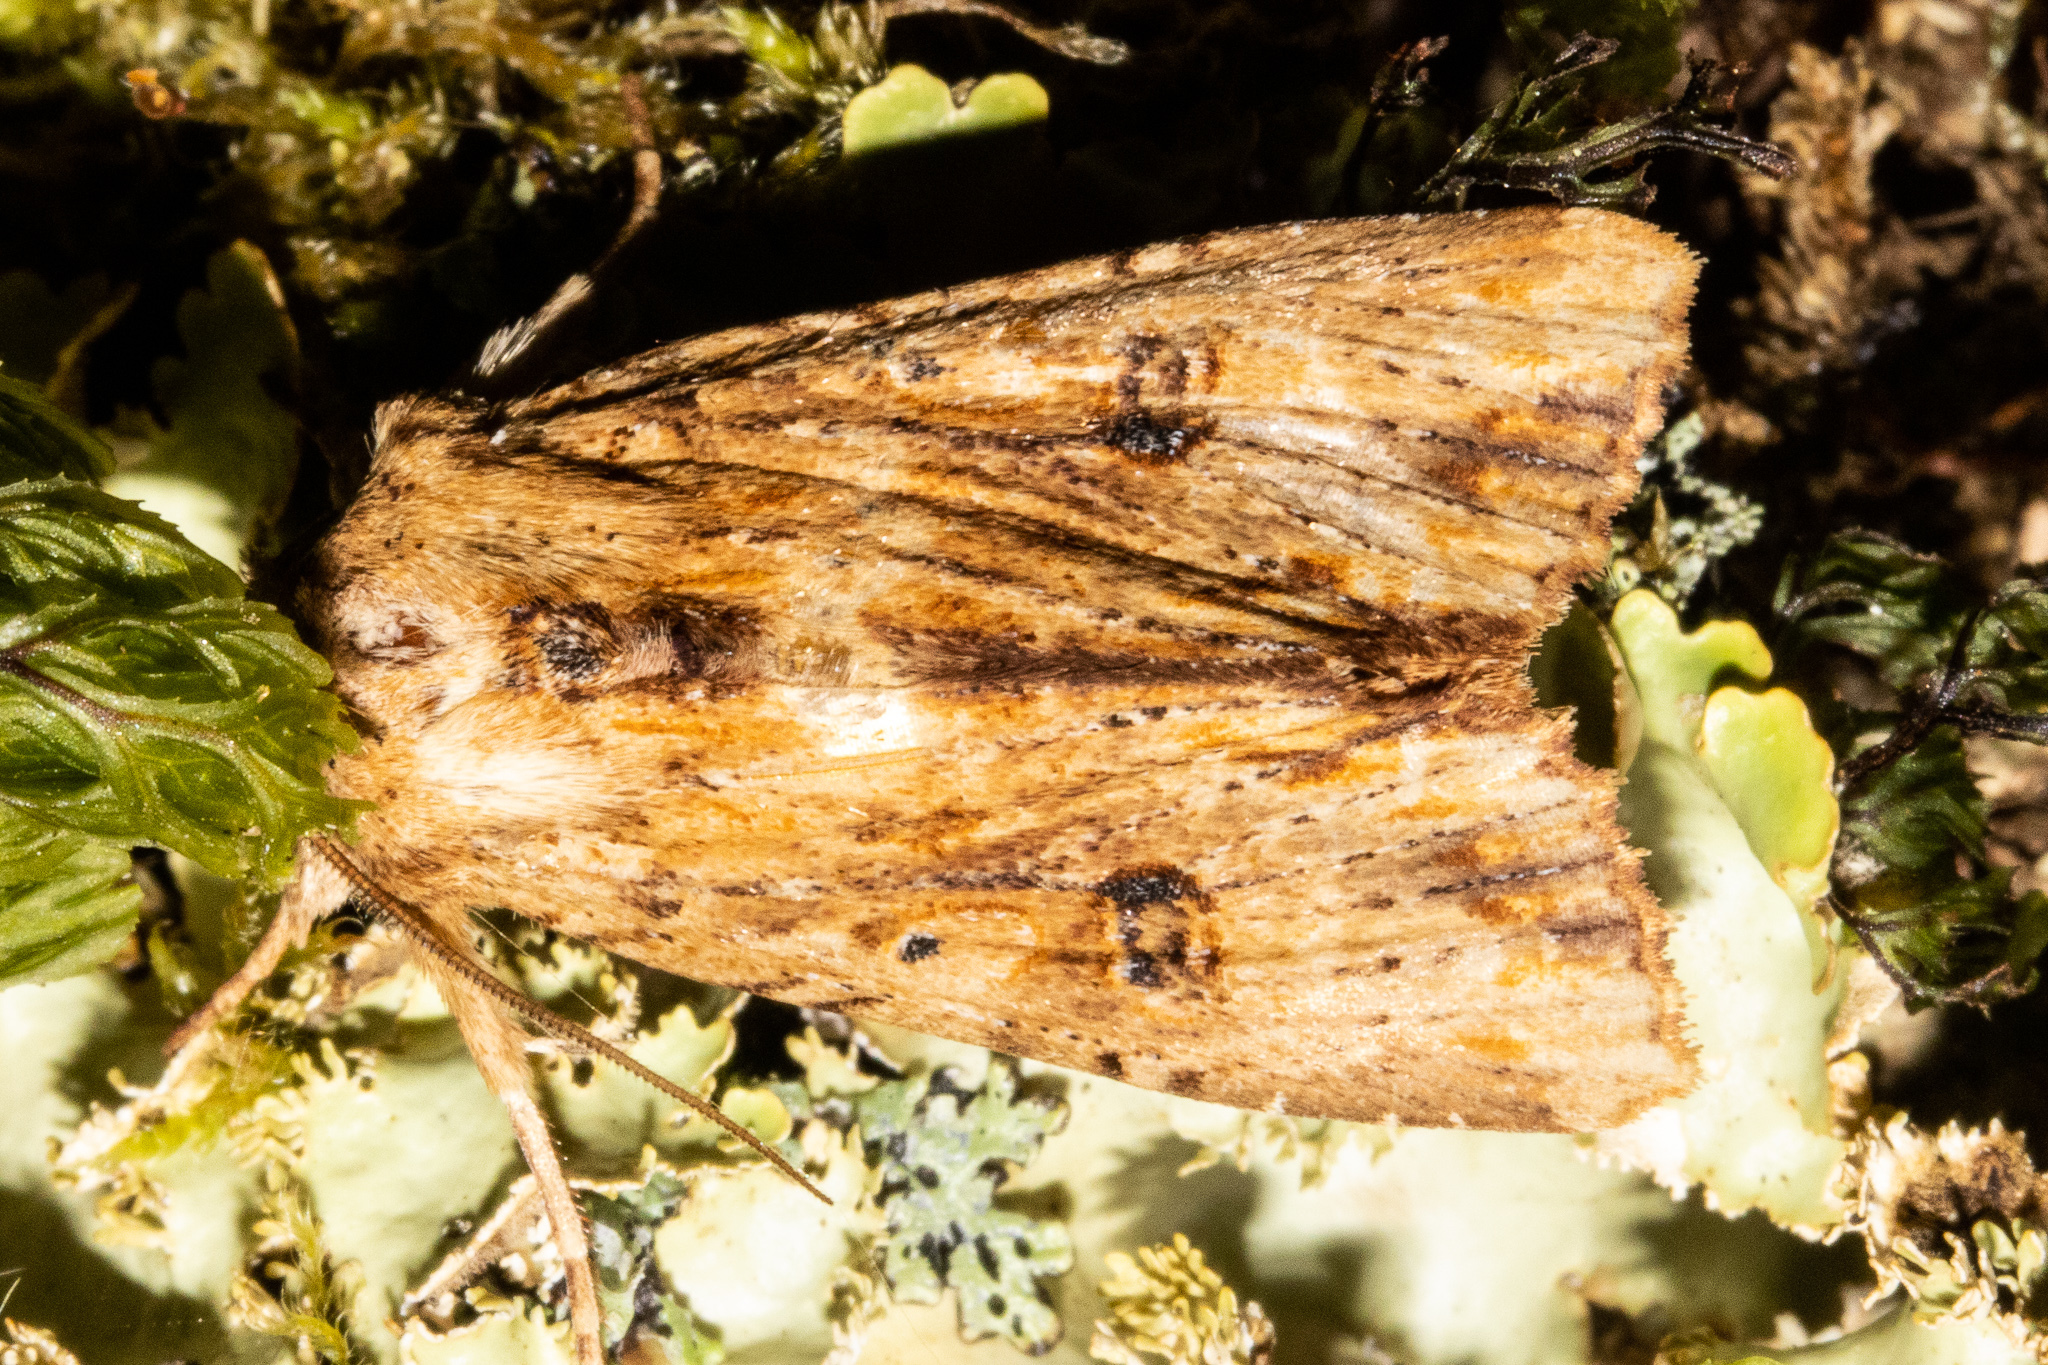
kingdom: Animalia
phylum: Arthropoda
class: Insecta
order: Lepidoptera
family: Noctuidae
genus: Ichneutica
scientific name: Ichneutica
